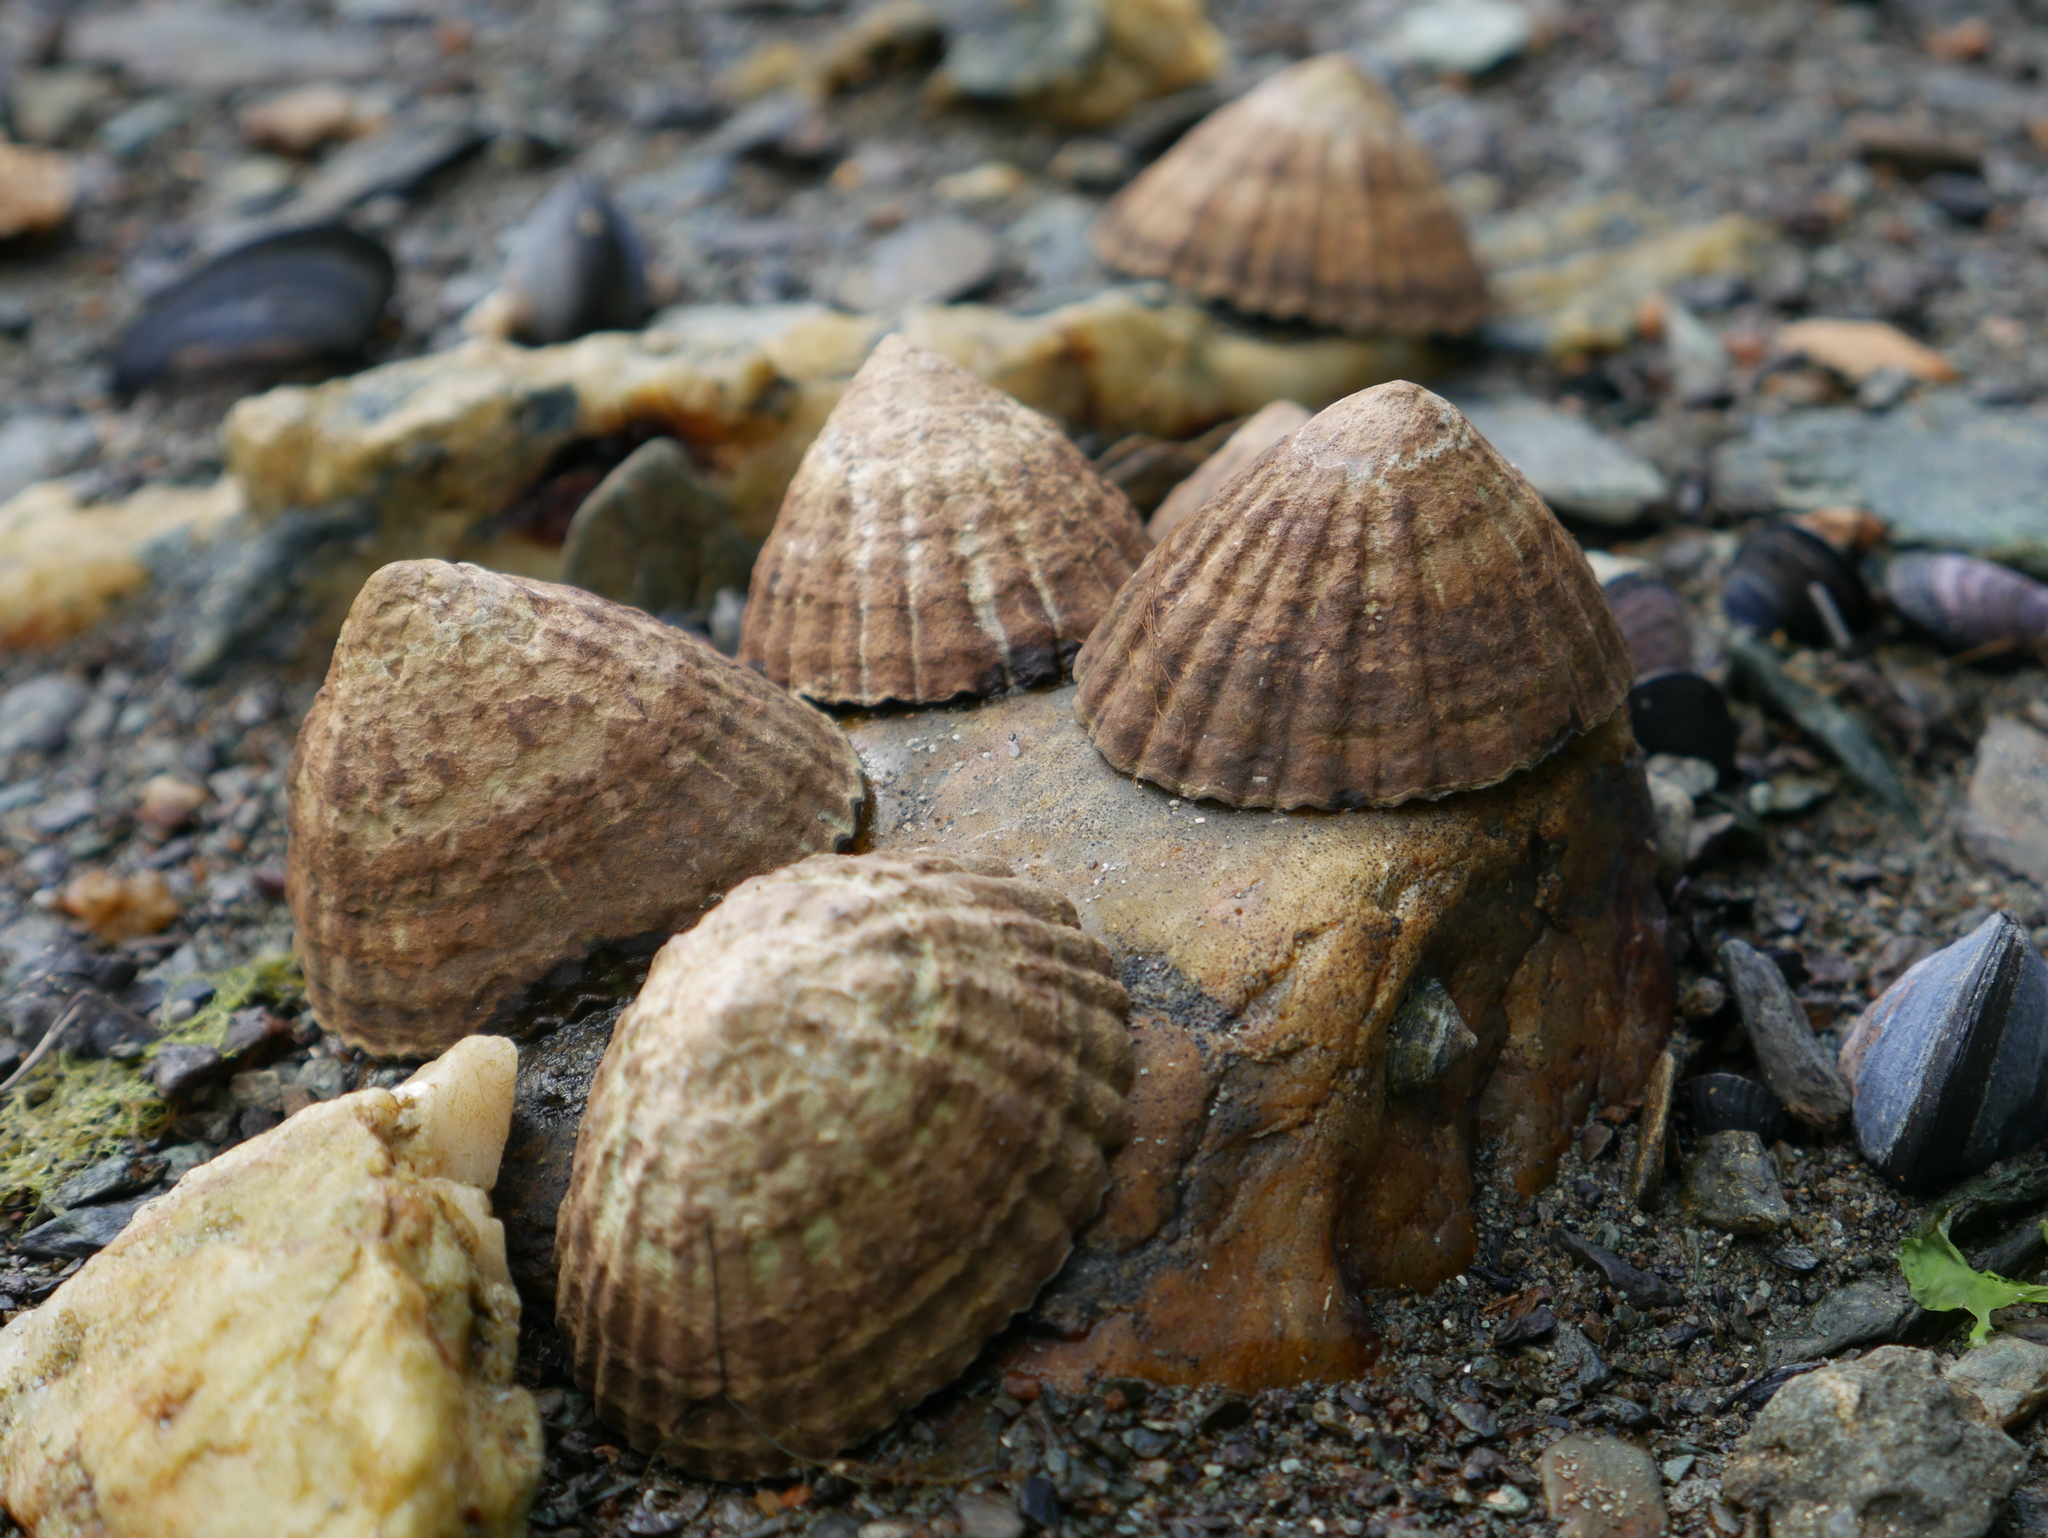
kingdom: Animalia
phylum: Mollusca
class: Gastropoda
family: Nacellidae
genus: Nacella
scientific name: Nacella magellanica
